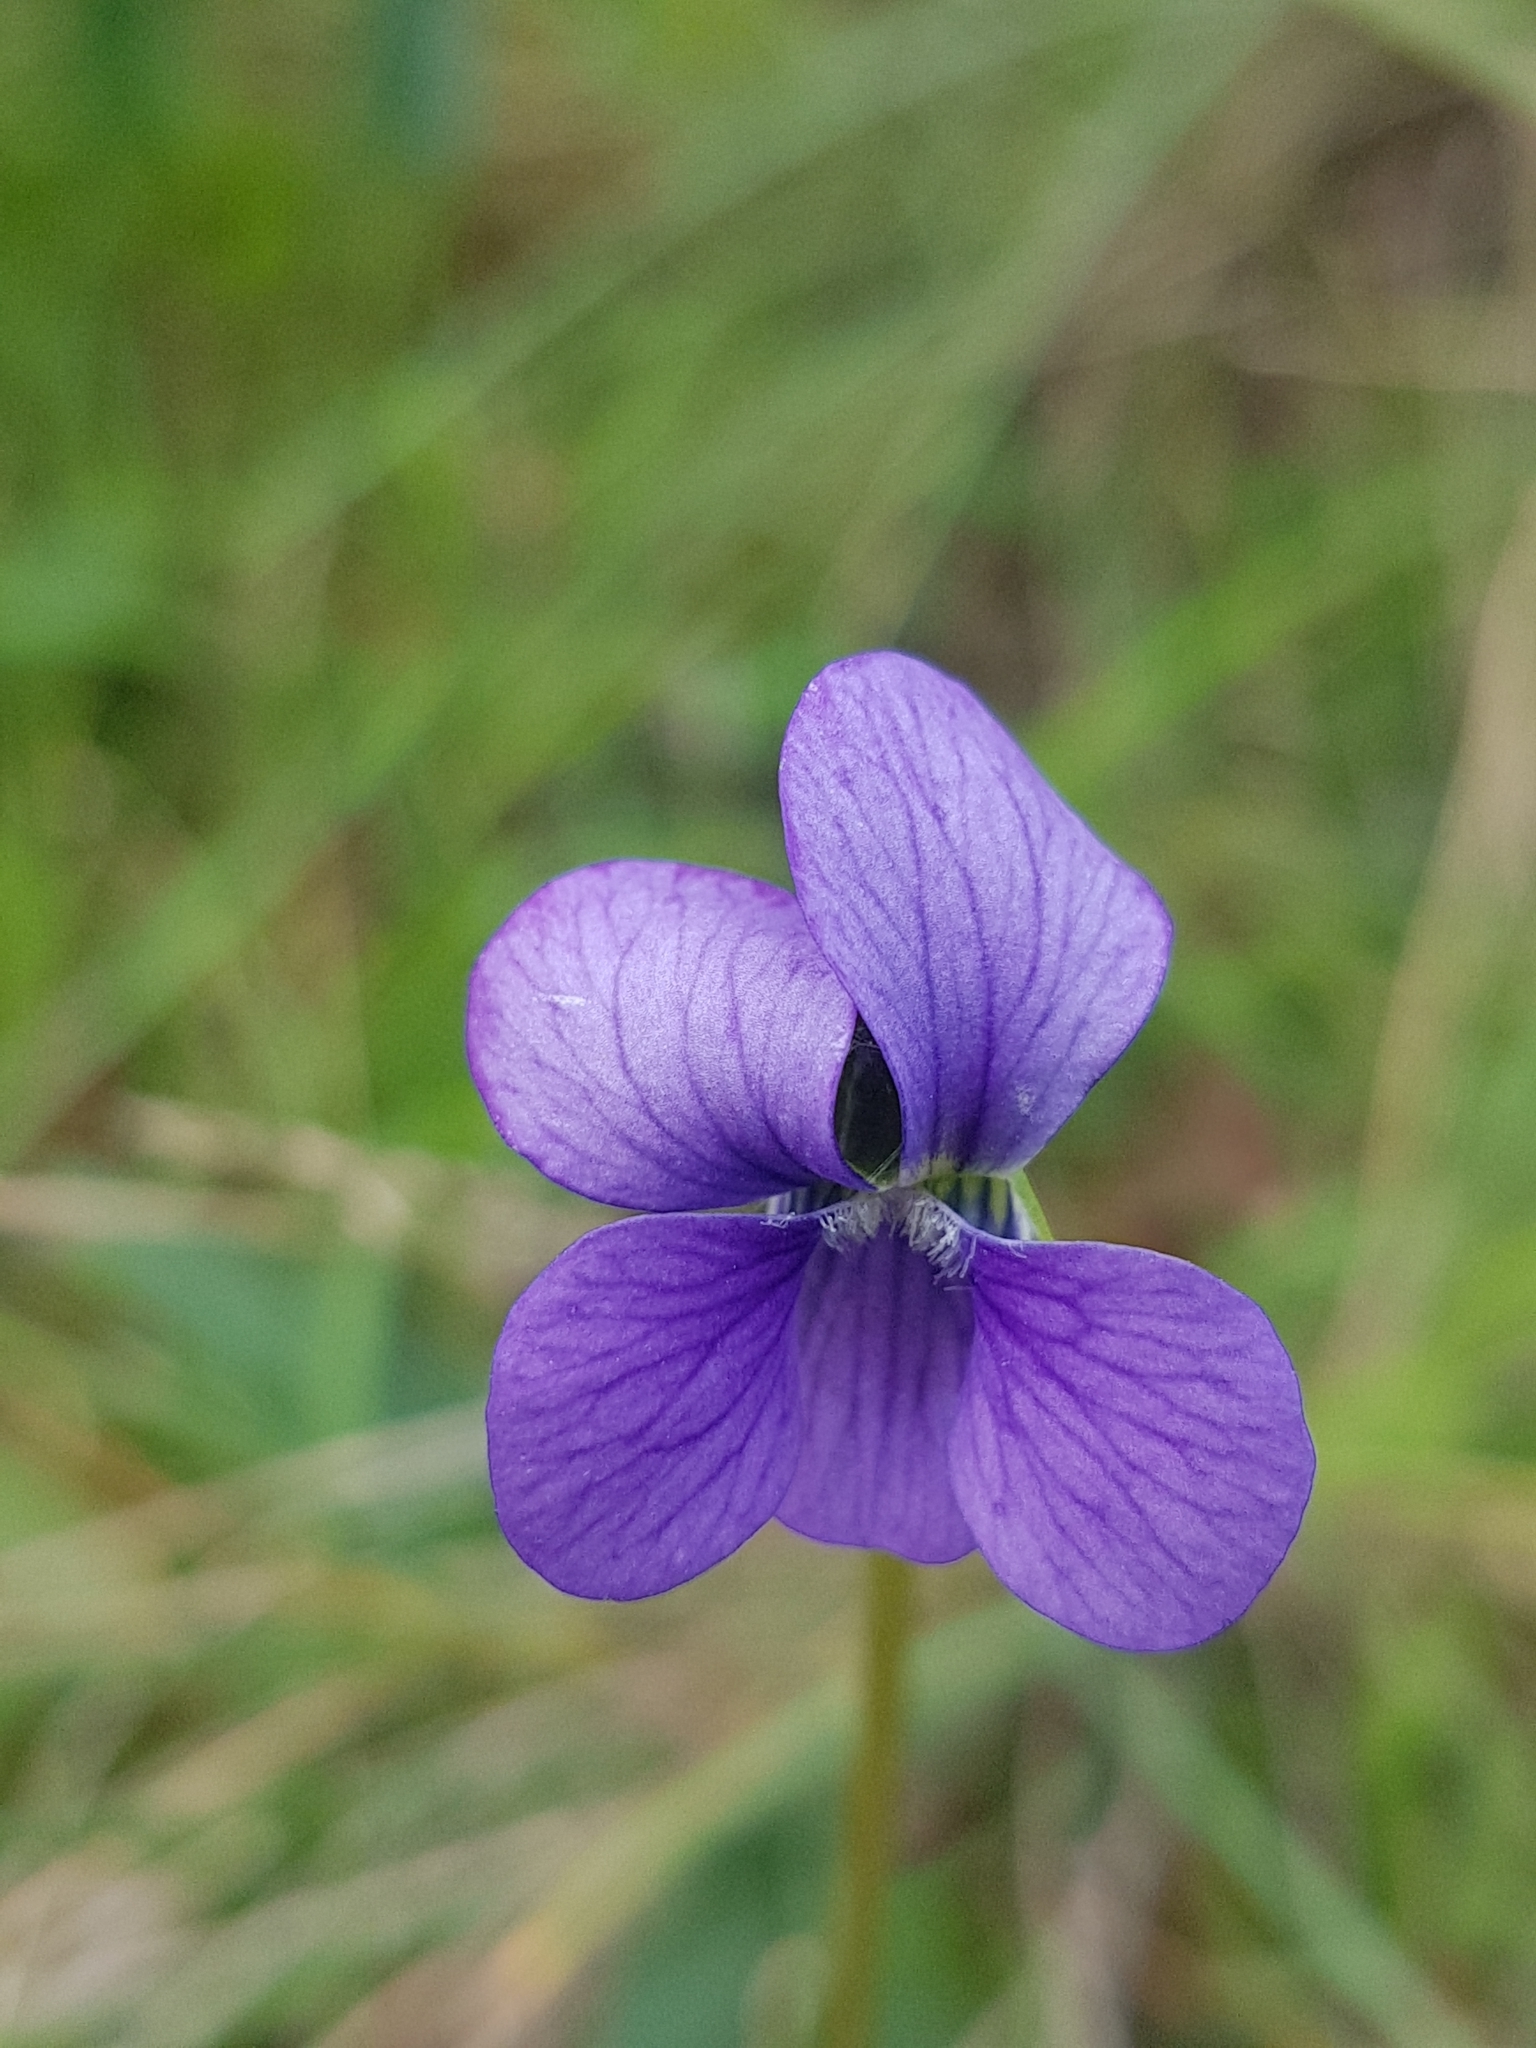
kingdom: Plantae
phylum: Tracheophyta
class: Magnoliopsida
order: Malpighiales
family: Violaceae
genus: Viola
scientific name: Viola betonicifolia
